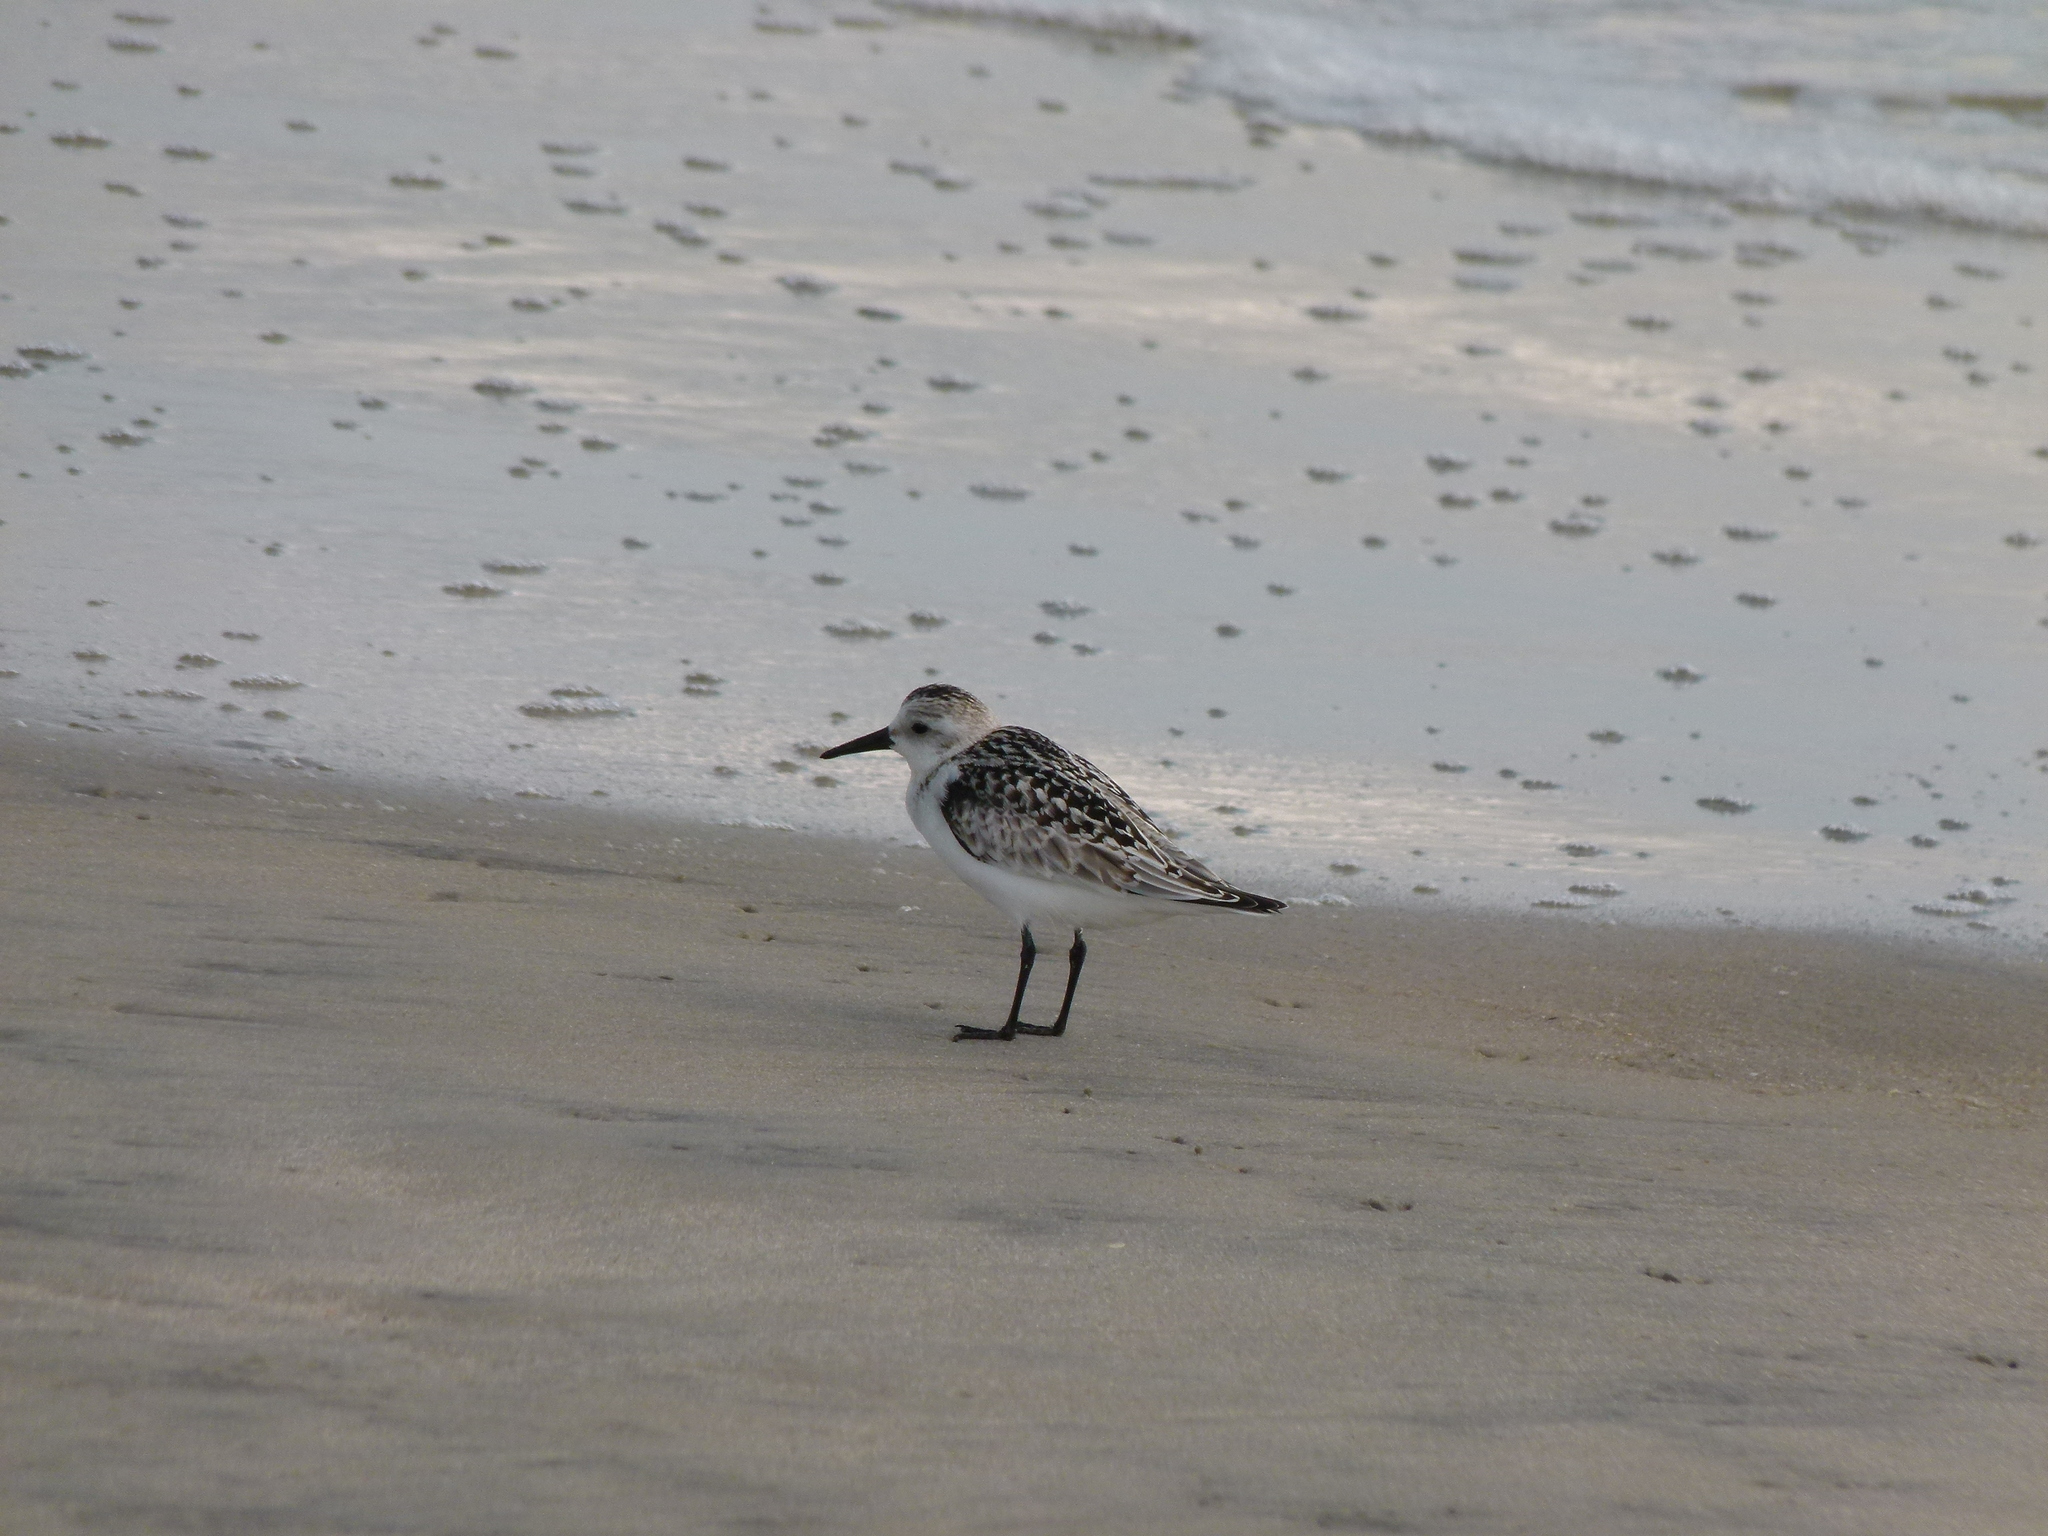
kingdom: Animalia
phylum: Chordata
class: Aves
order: Charadriiformes
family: Scolopacidae
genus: Calidris
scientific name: Calidris alba
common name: Sanderling
